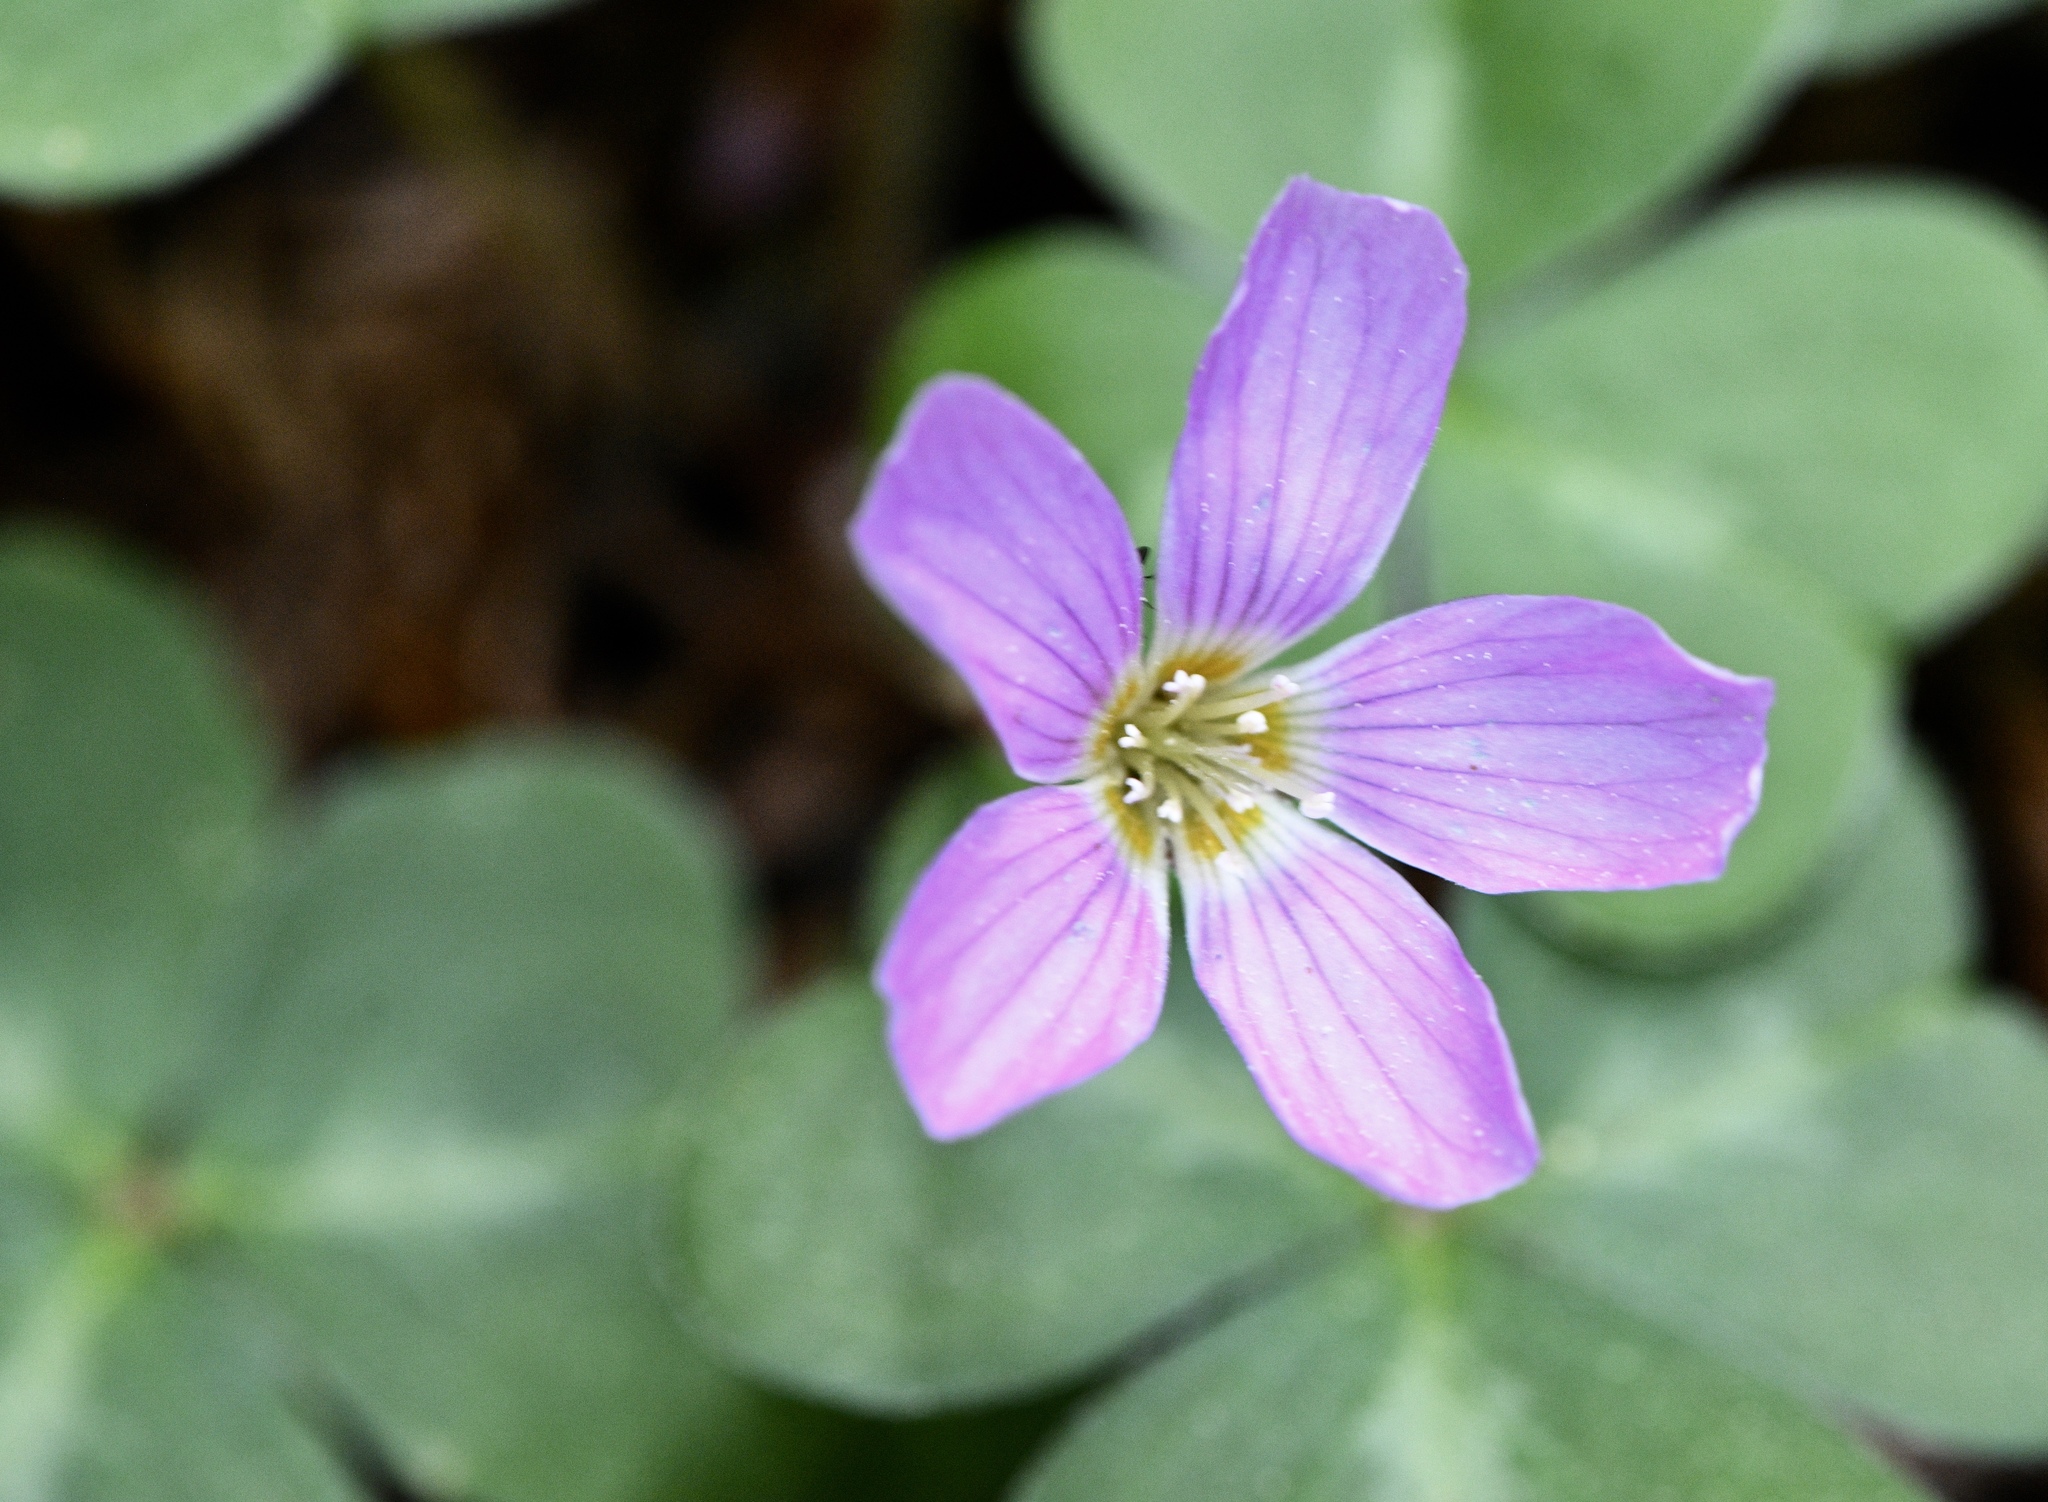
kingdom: Plantae
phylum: Tracheophyta
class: Magnoliopsida
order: Oxalidales
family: Oxalidaceae
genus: Oxalis
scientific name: Oxalis oregana
